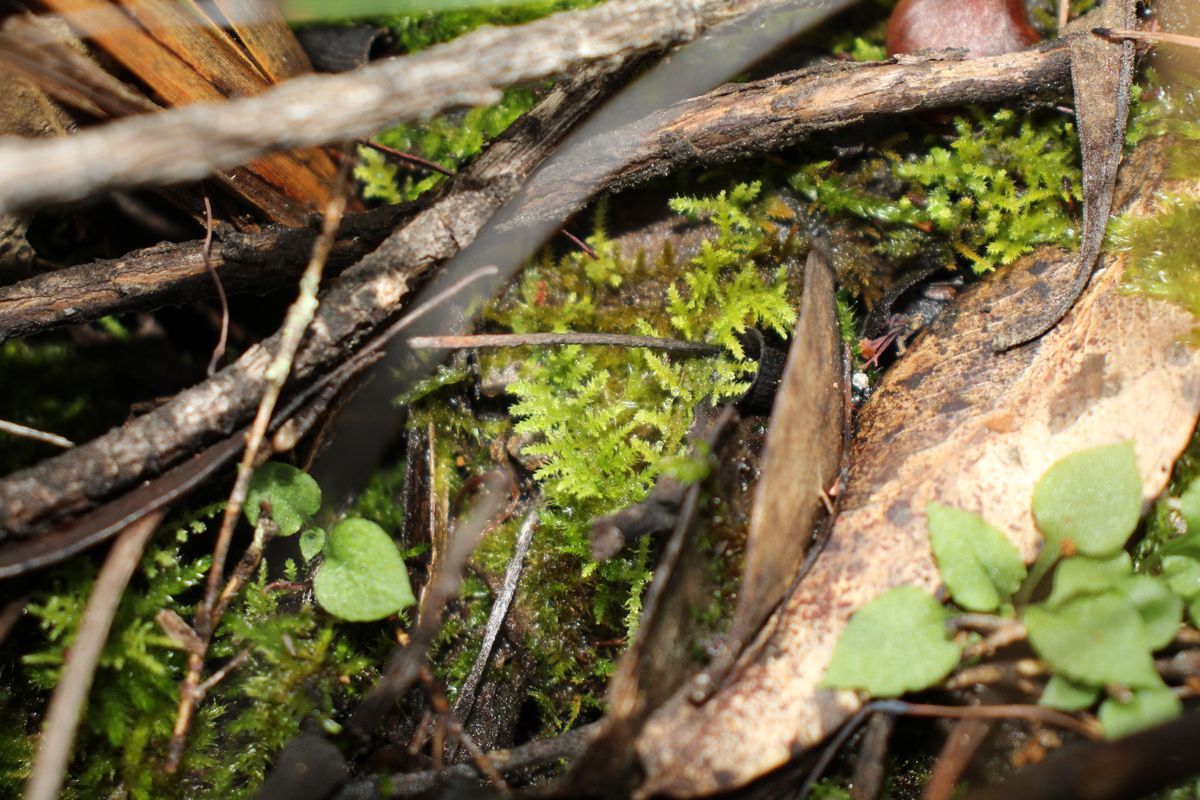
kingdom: Plantae
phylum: Bryophyta
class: Bryopsida
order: Hypnales
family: Thuidiaceae
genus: Thuidiopsis
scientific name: Thuidiopsis sparsa
